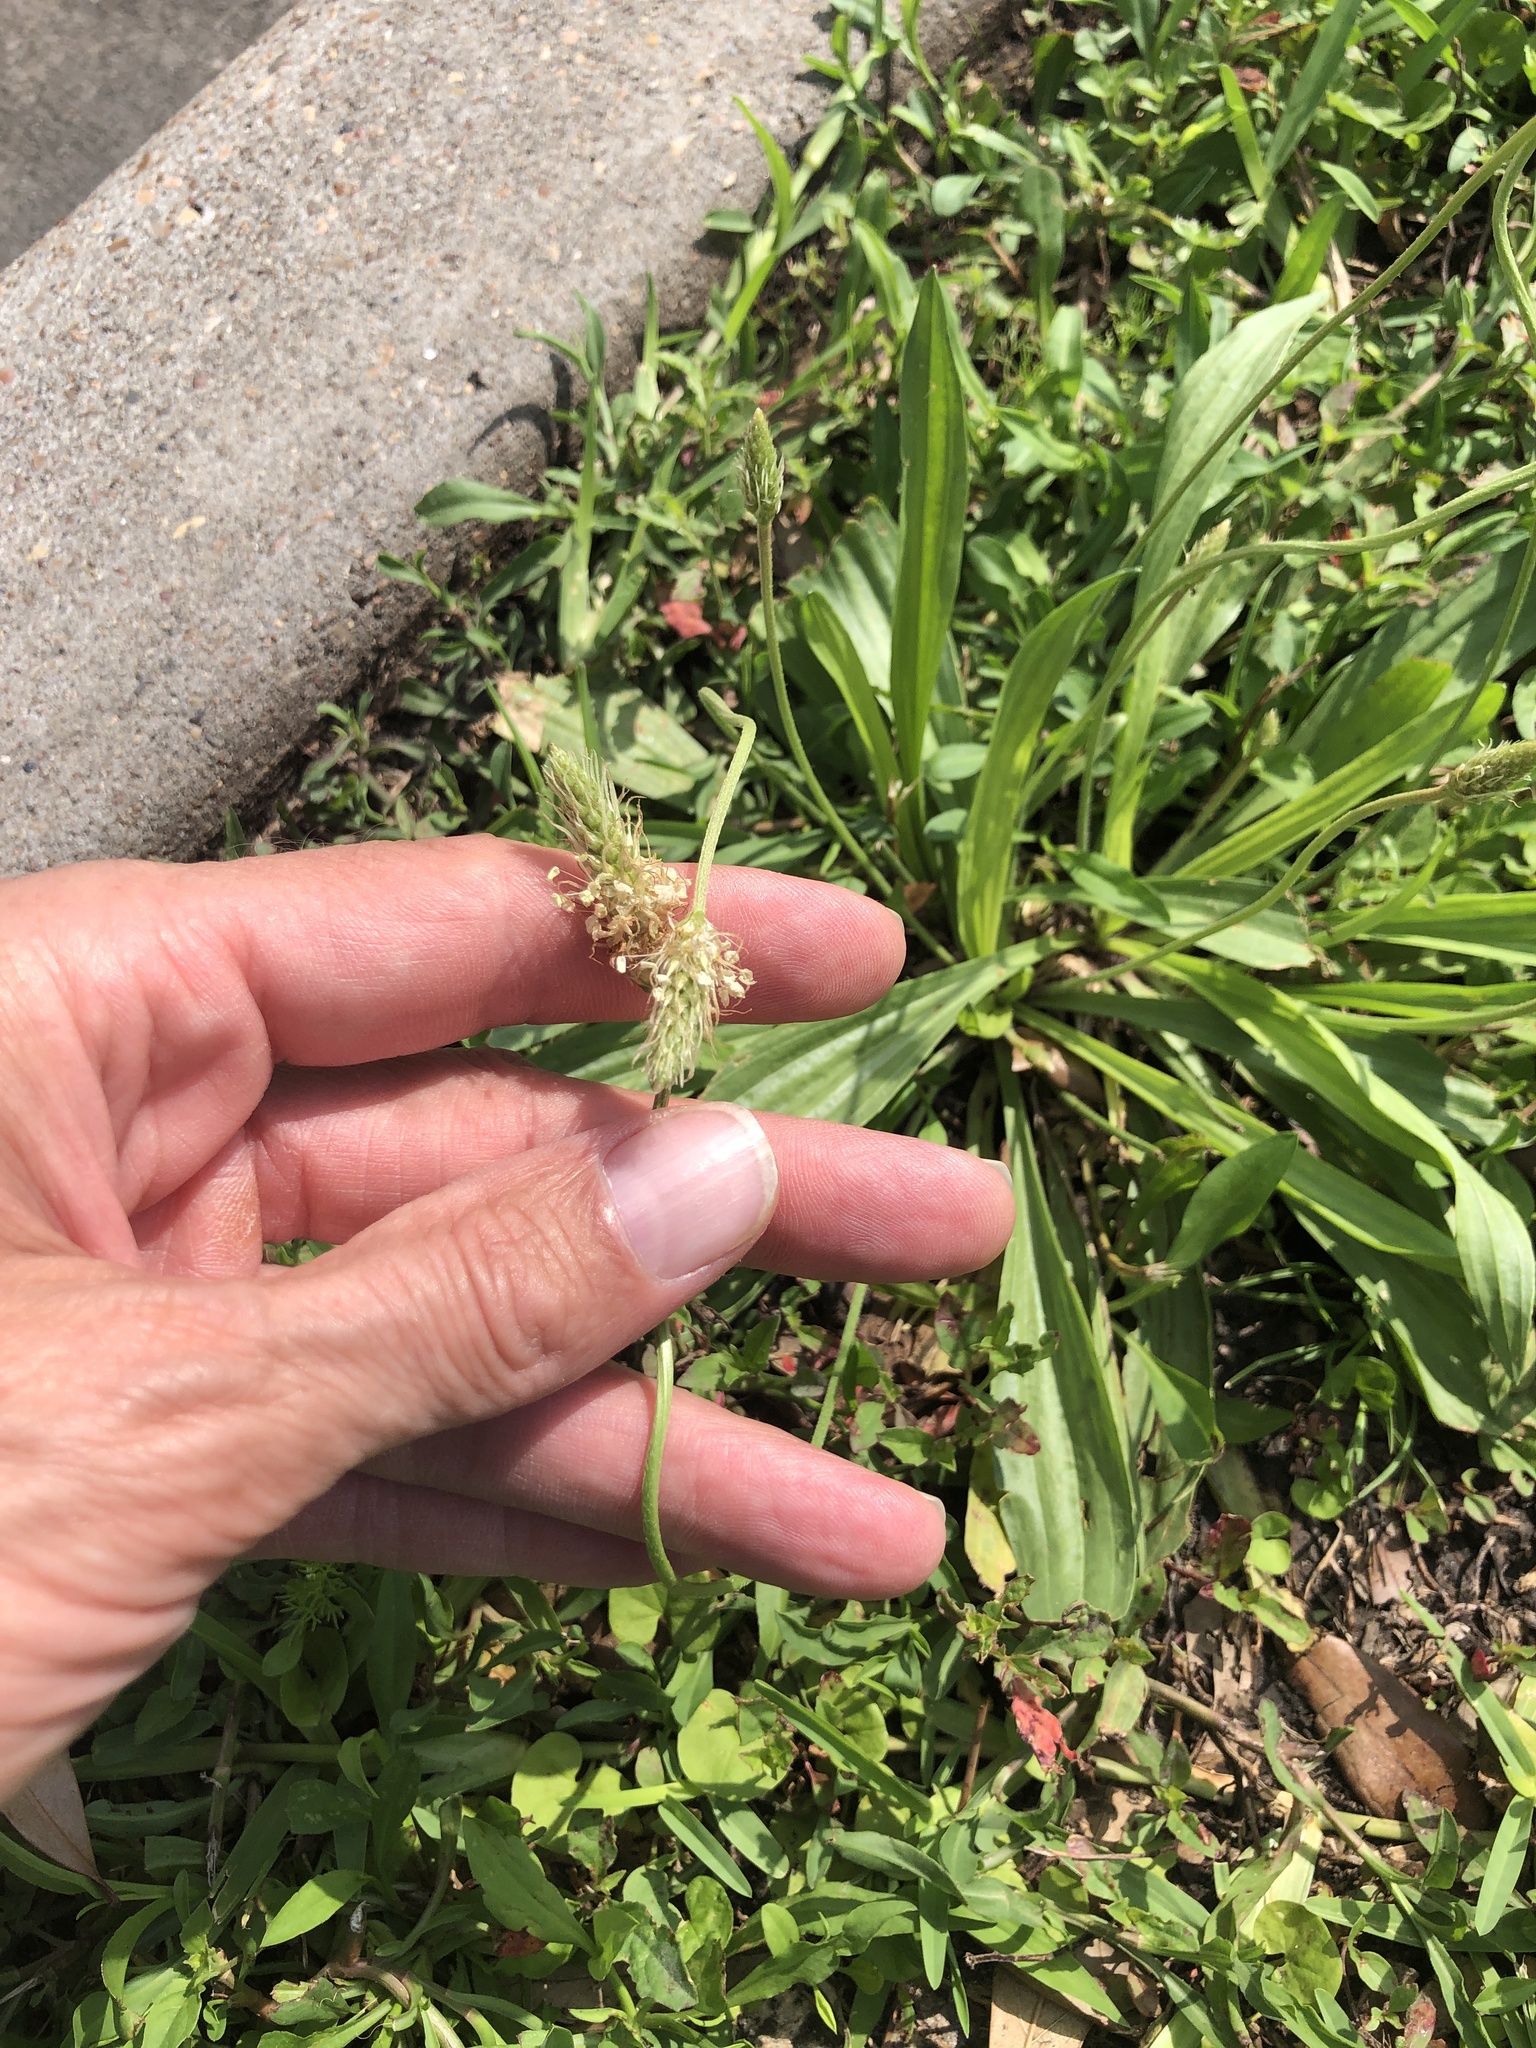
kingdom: Plantae
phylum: Tracheophyta
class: Magnoliopsida
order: Lamiales
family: Plantaginaceae
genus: Plantago
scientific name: Plantago lanceolata
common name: Ribwort plantain
